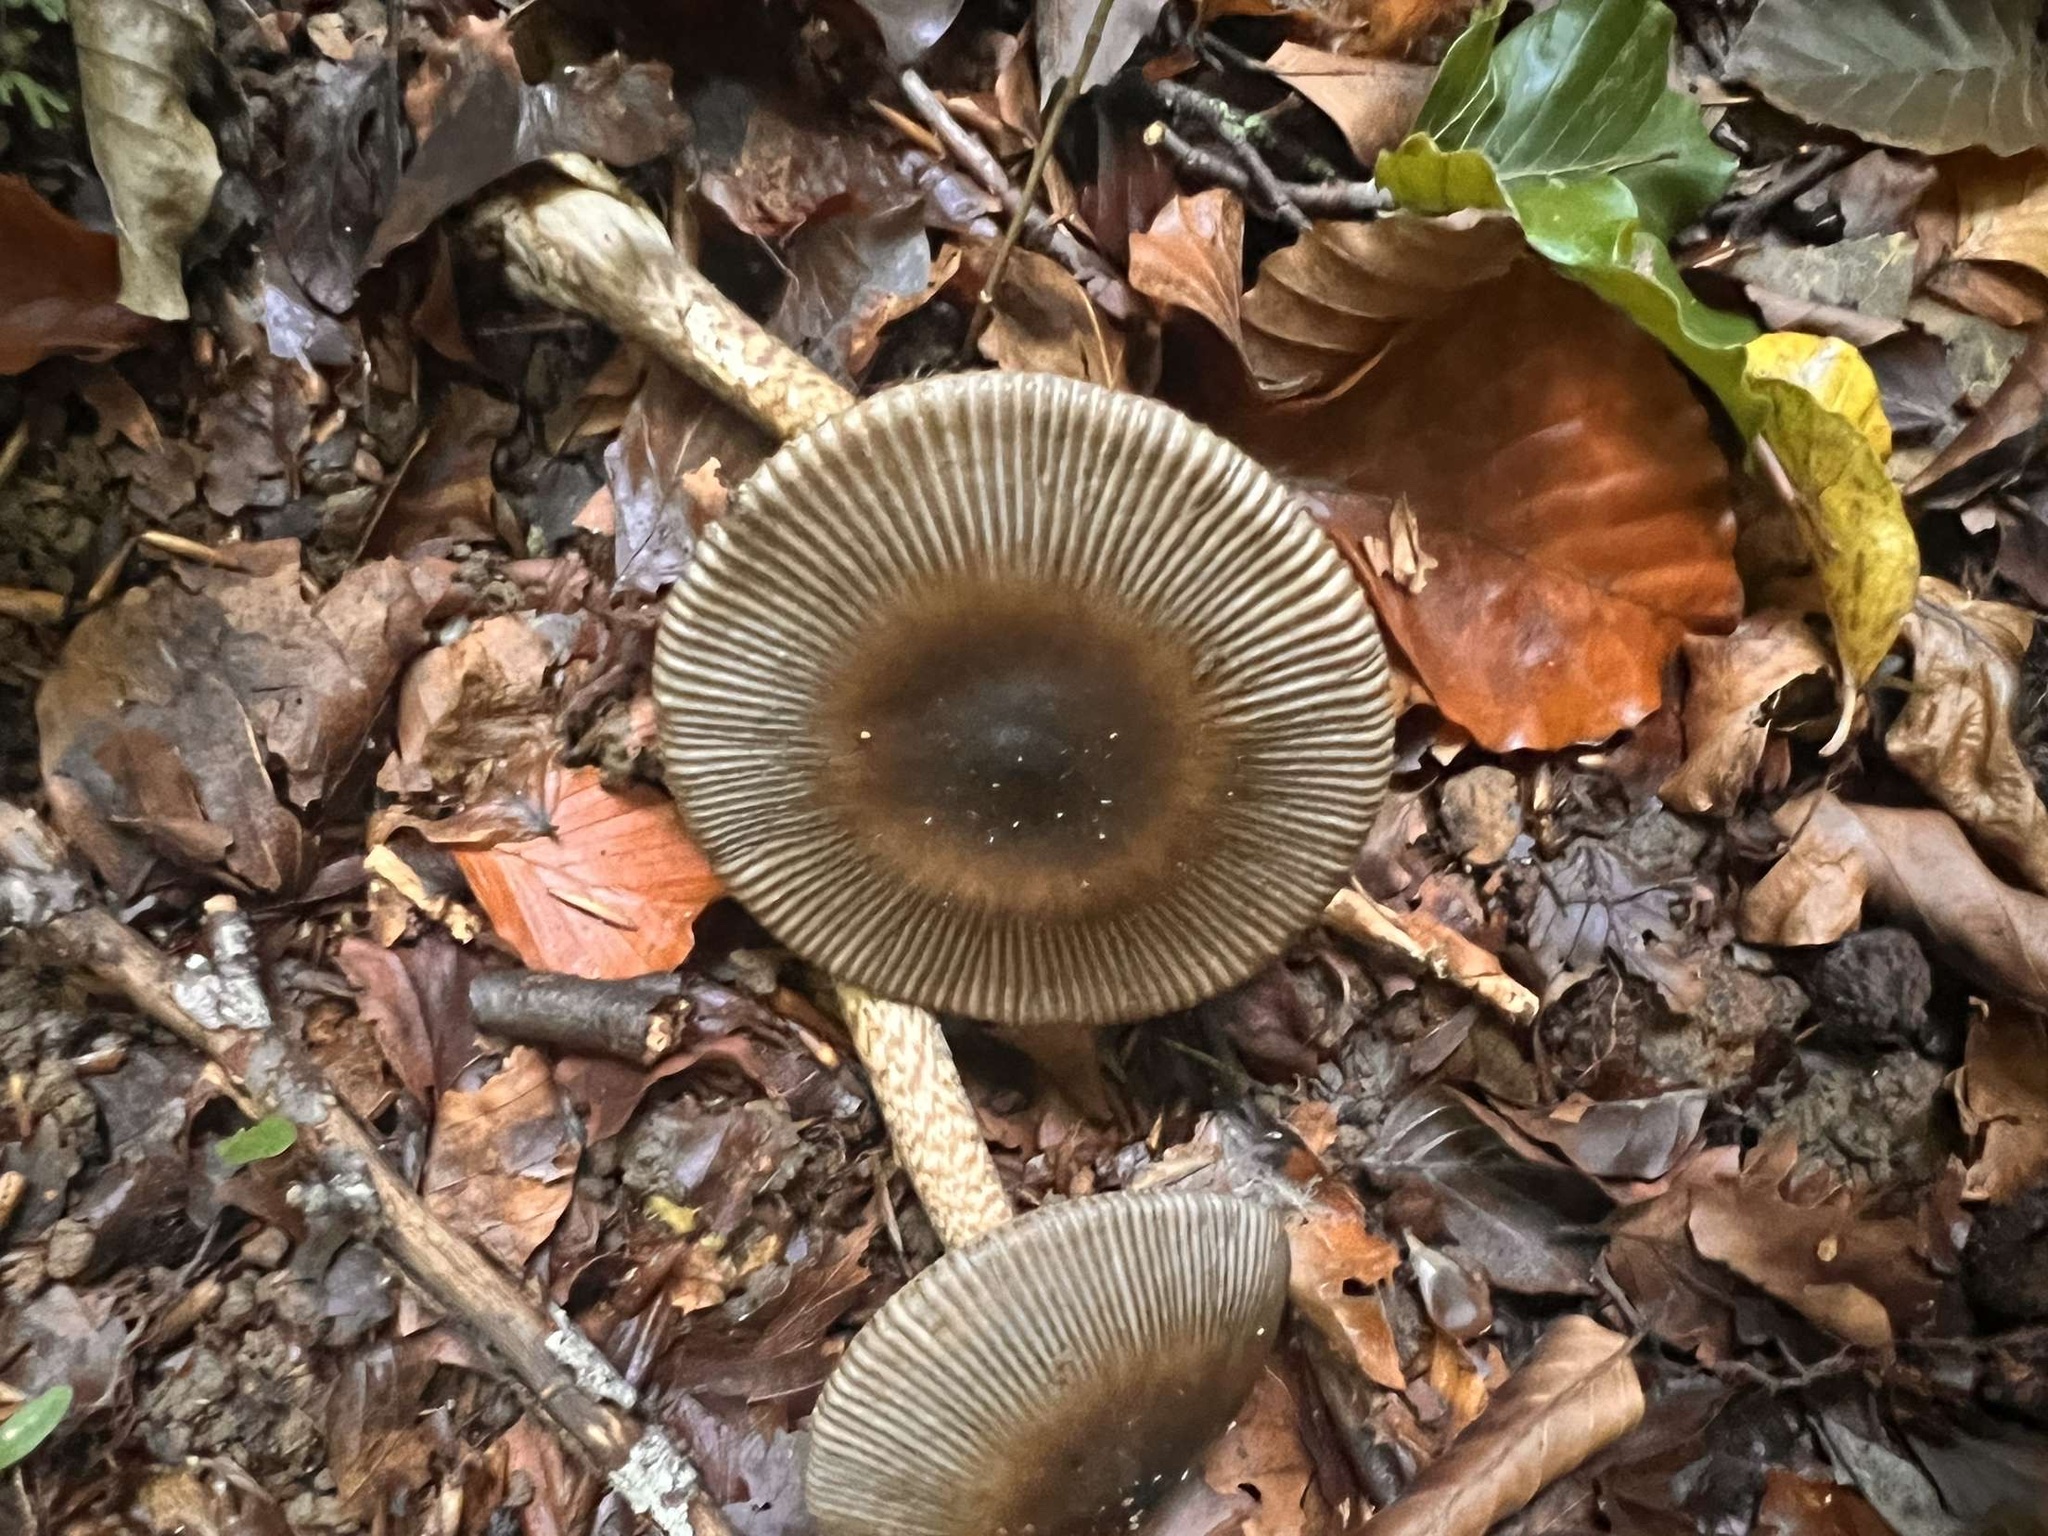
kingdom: Fungi
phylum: Basidiomycota
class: Agaricomycetes
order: Agaricales
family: Amanitaceae
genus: Amanita
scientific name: Amanita pekeoides
